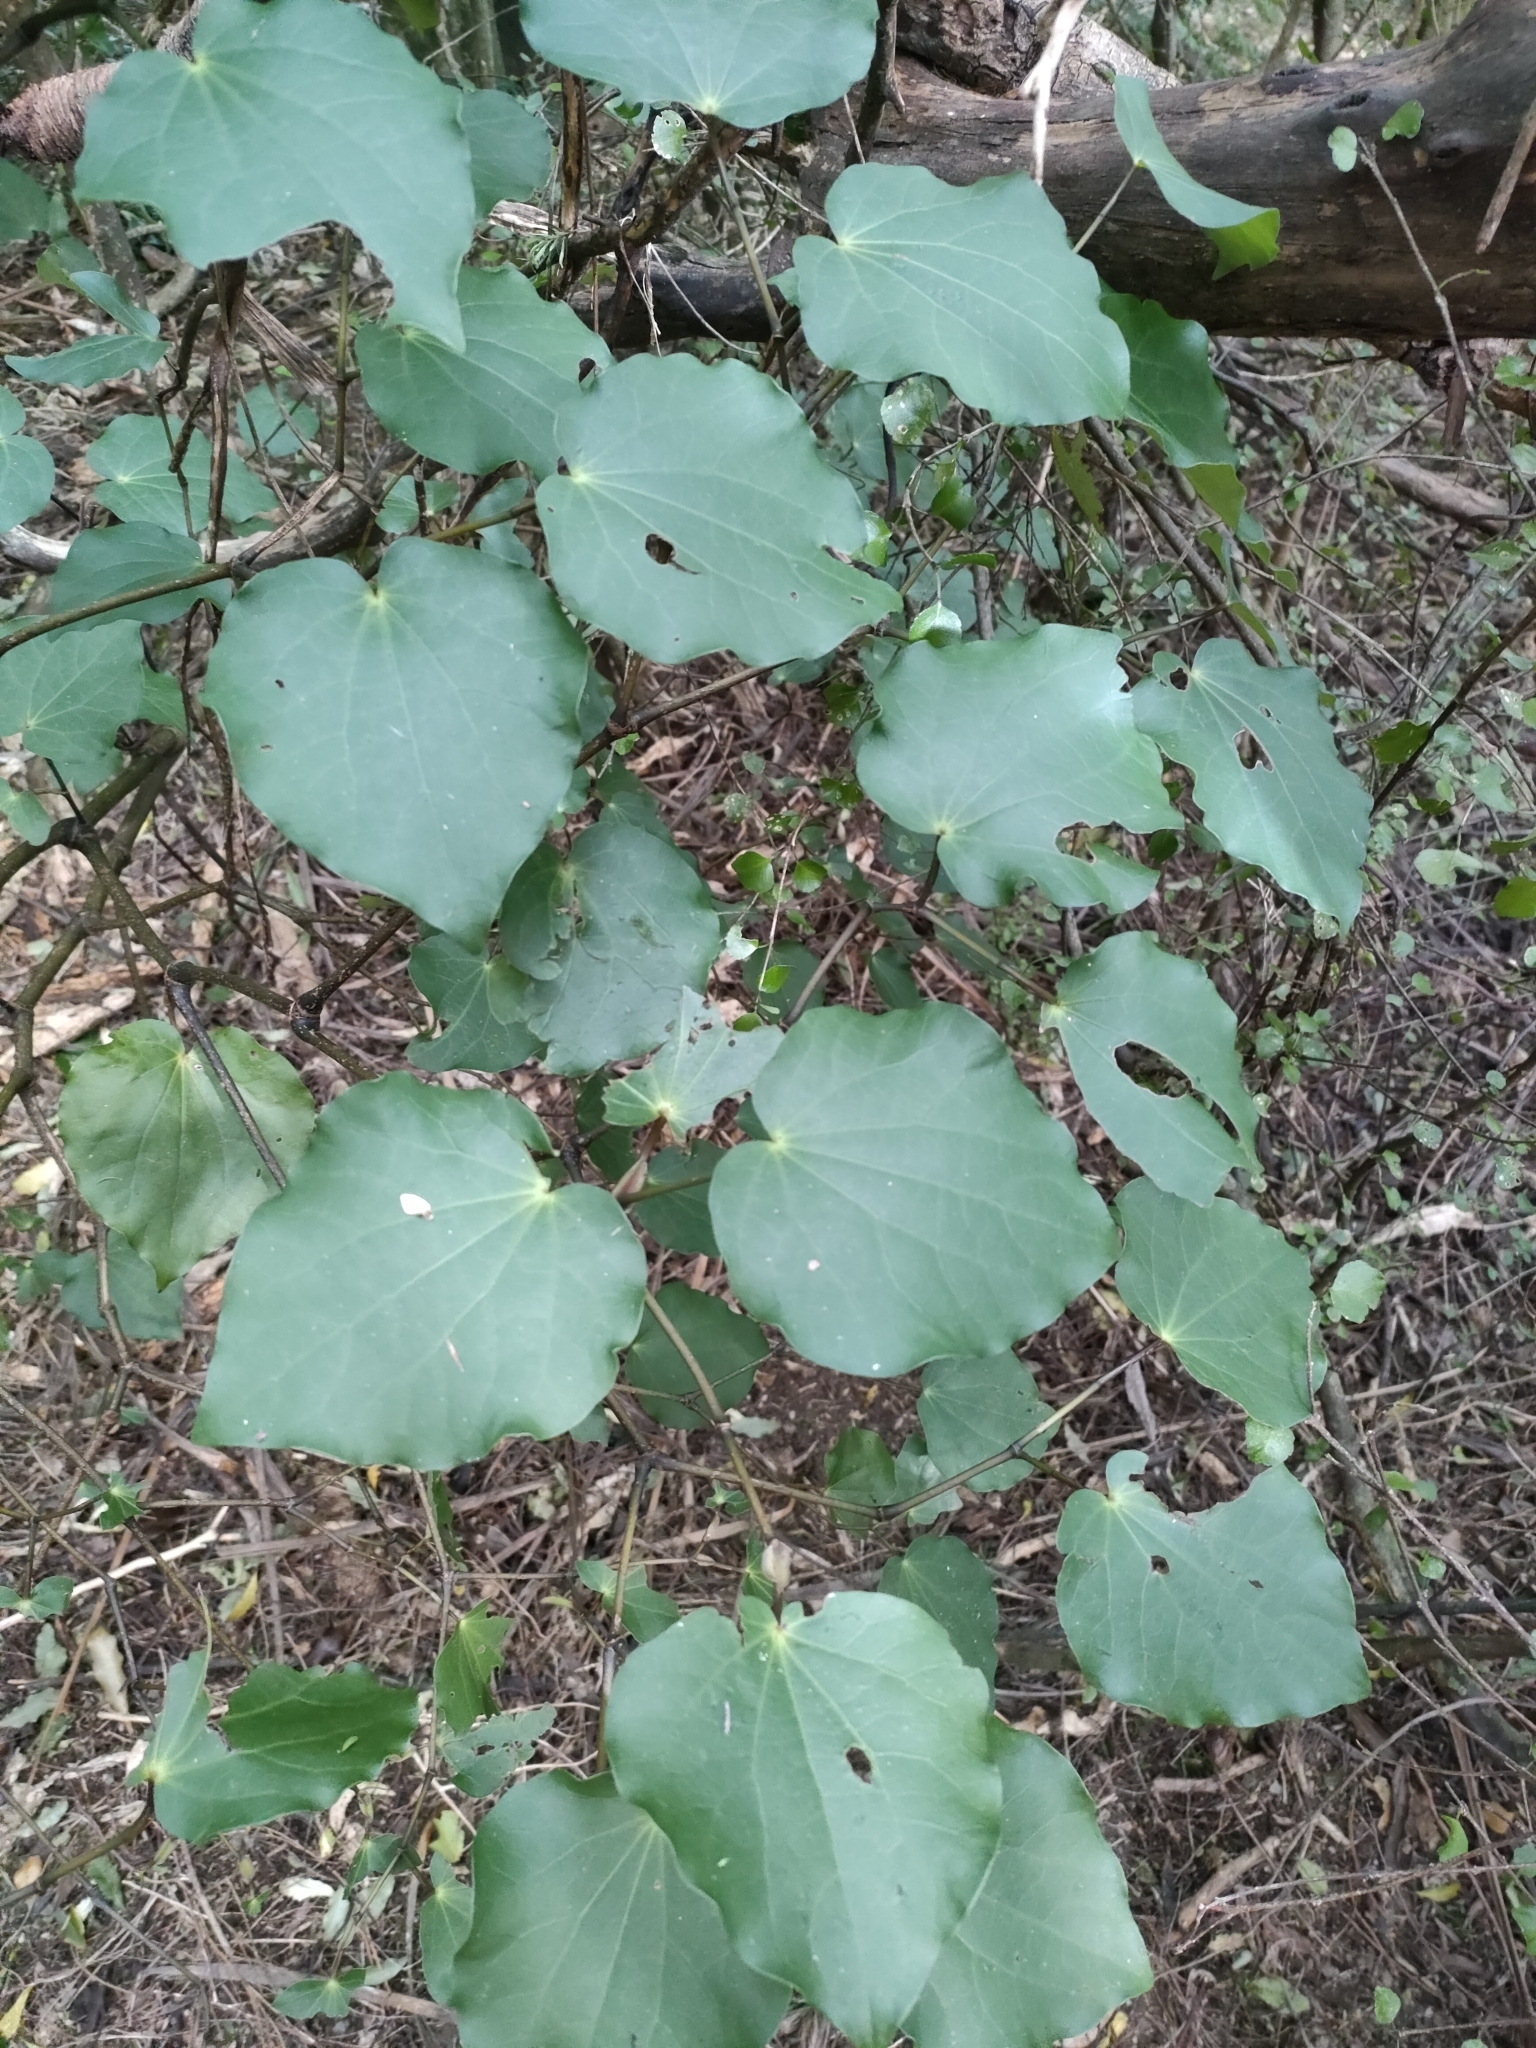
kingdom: Plantae
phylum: Tracheophyta
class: Magnoliopsida
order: Piperales
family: Piperaceae
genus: Macropiper
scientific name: Macropiper excelsum
